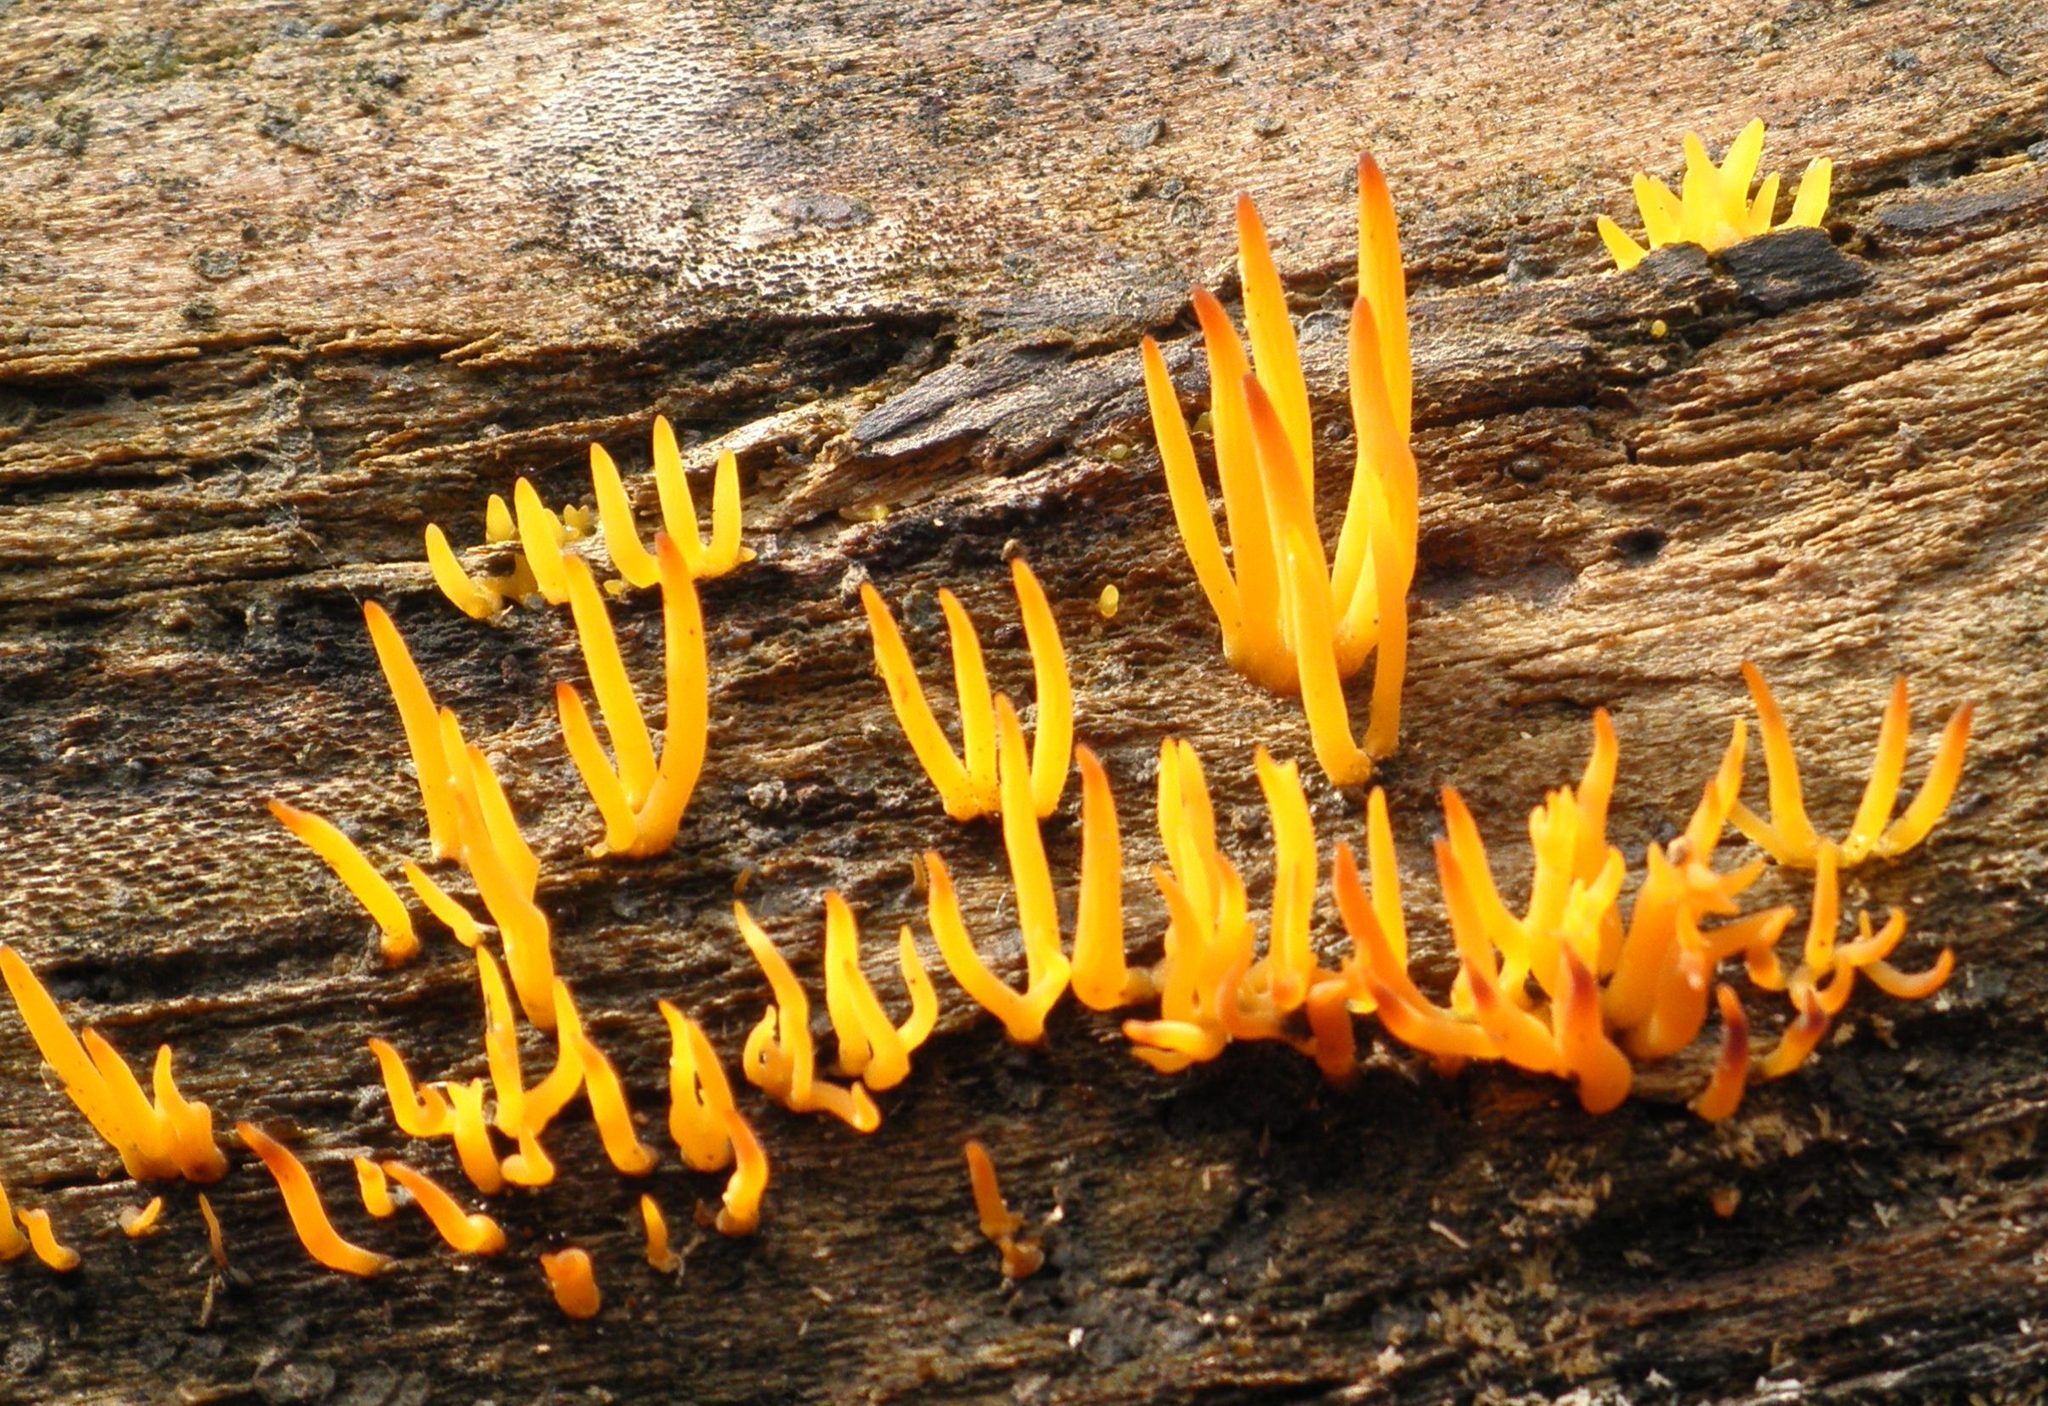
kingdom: Fungi
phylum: Basidiomycota
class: Dacrymycetes
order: Dacrymycetales
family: Dacrymycetaceae
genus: Calocera
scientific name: Calocera cornea
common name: Small stagshorn
